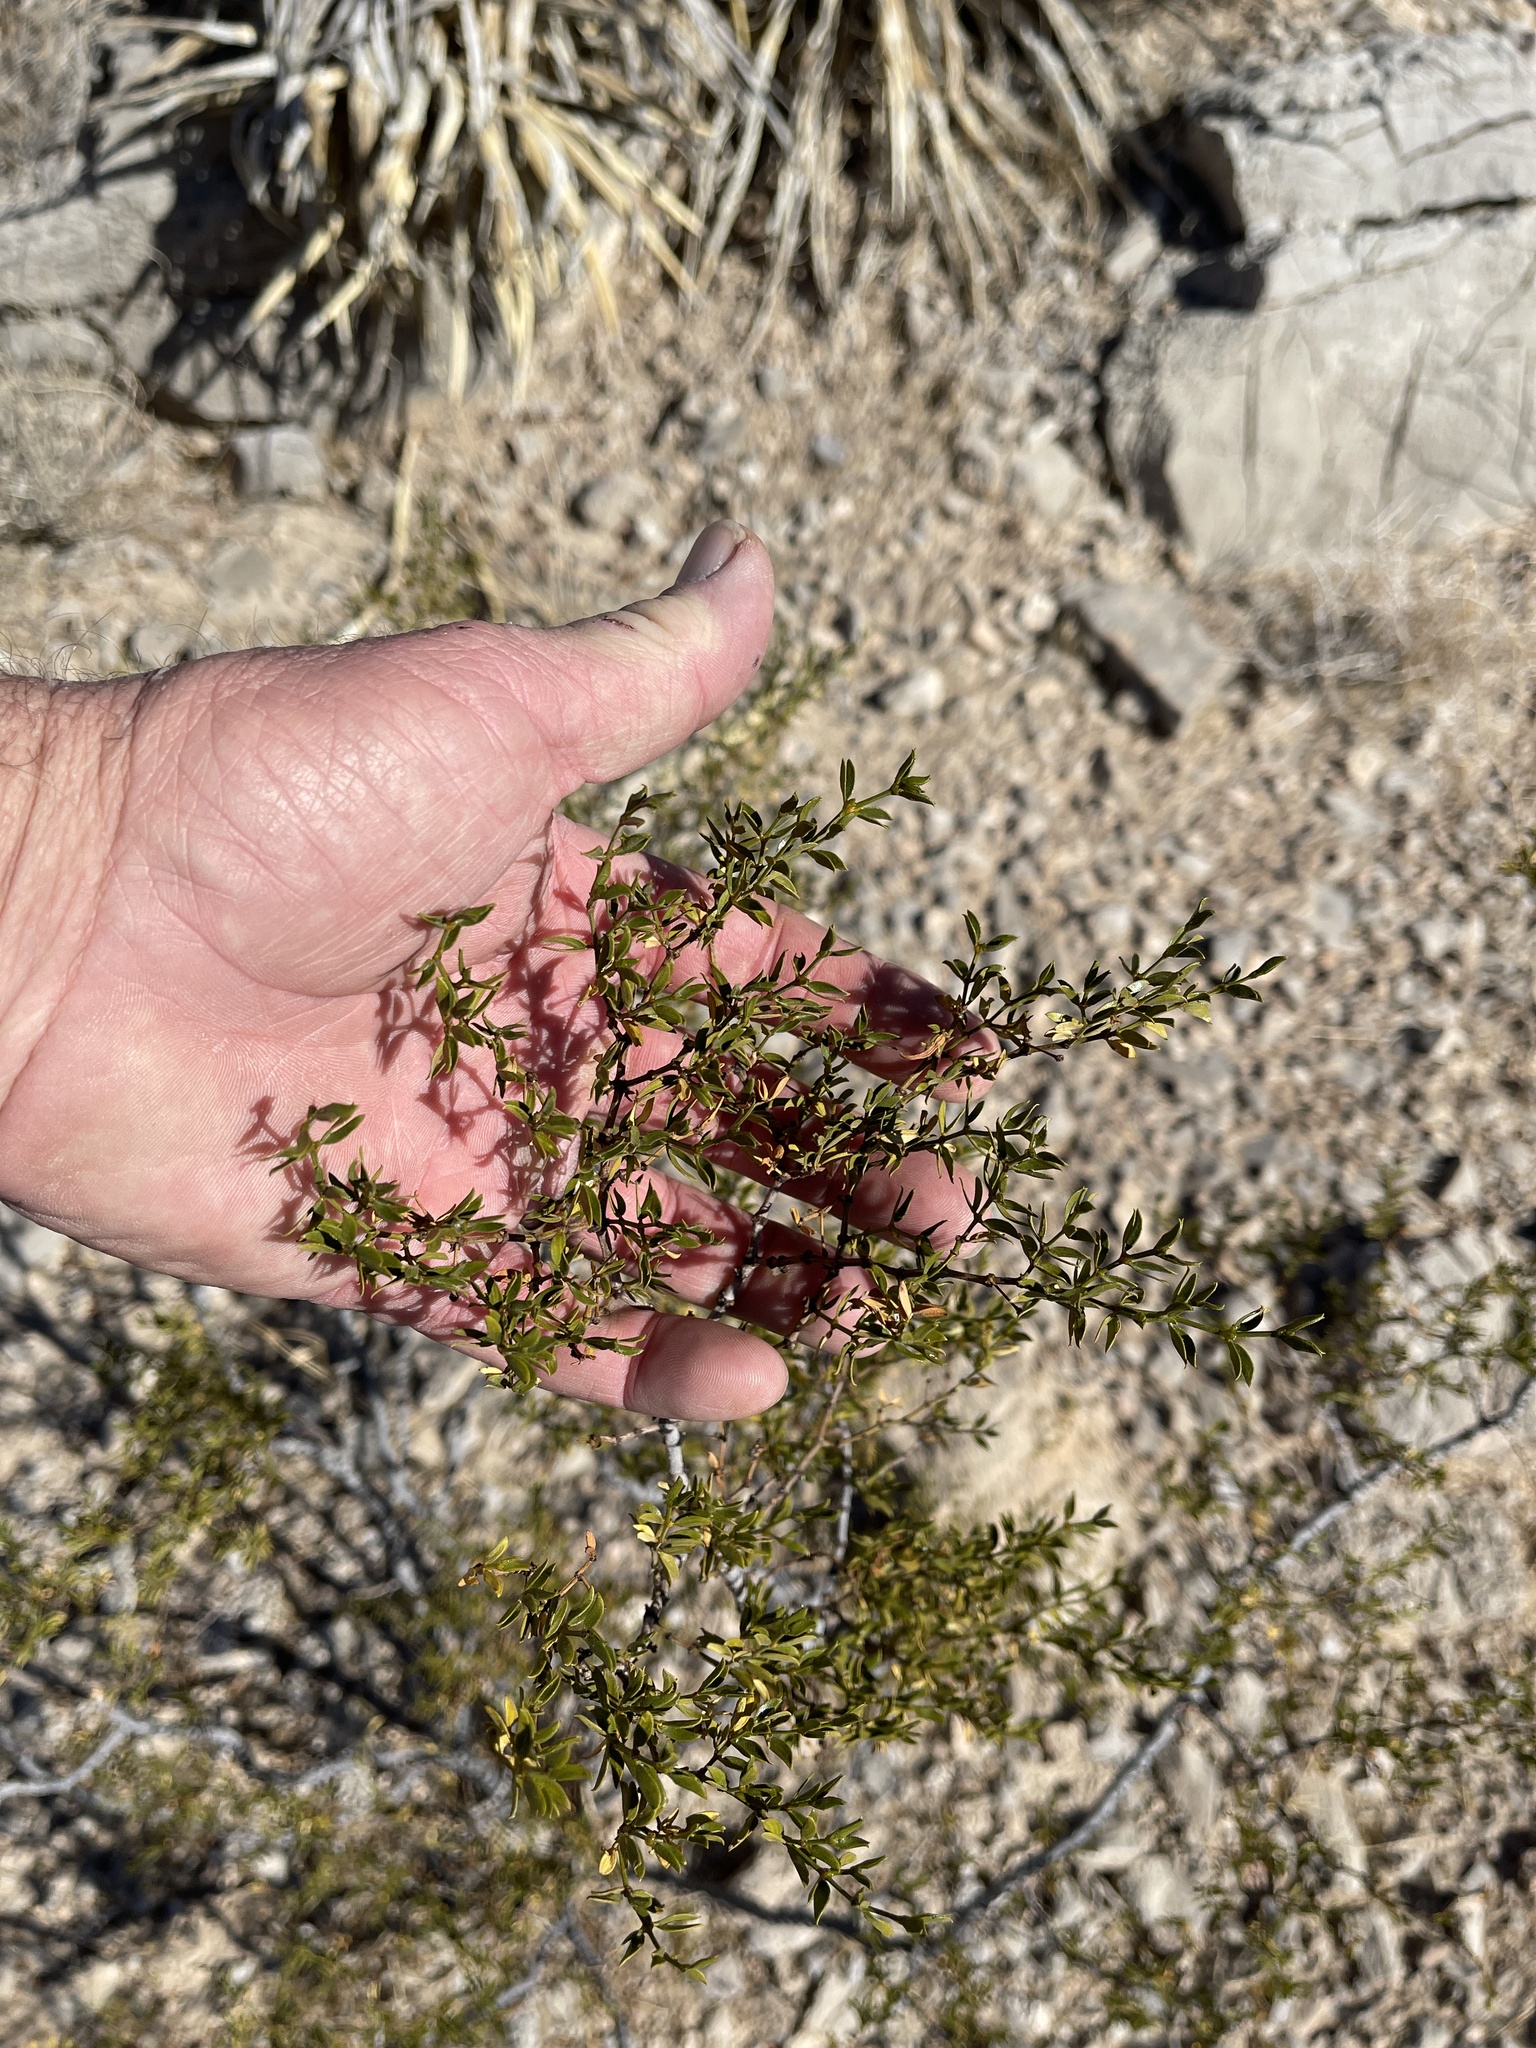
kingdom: Plantae
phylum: Tracheophyta
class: Magnoliopsida
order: Zygophyllales
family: Zygophyllaceae
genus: Larrea
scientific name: Larrea tridentata
